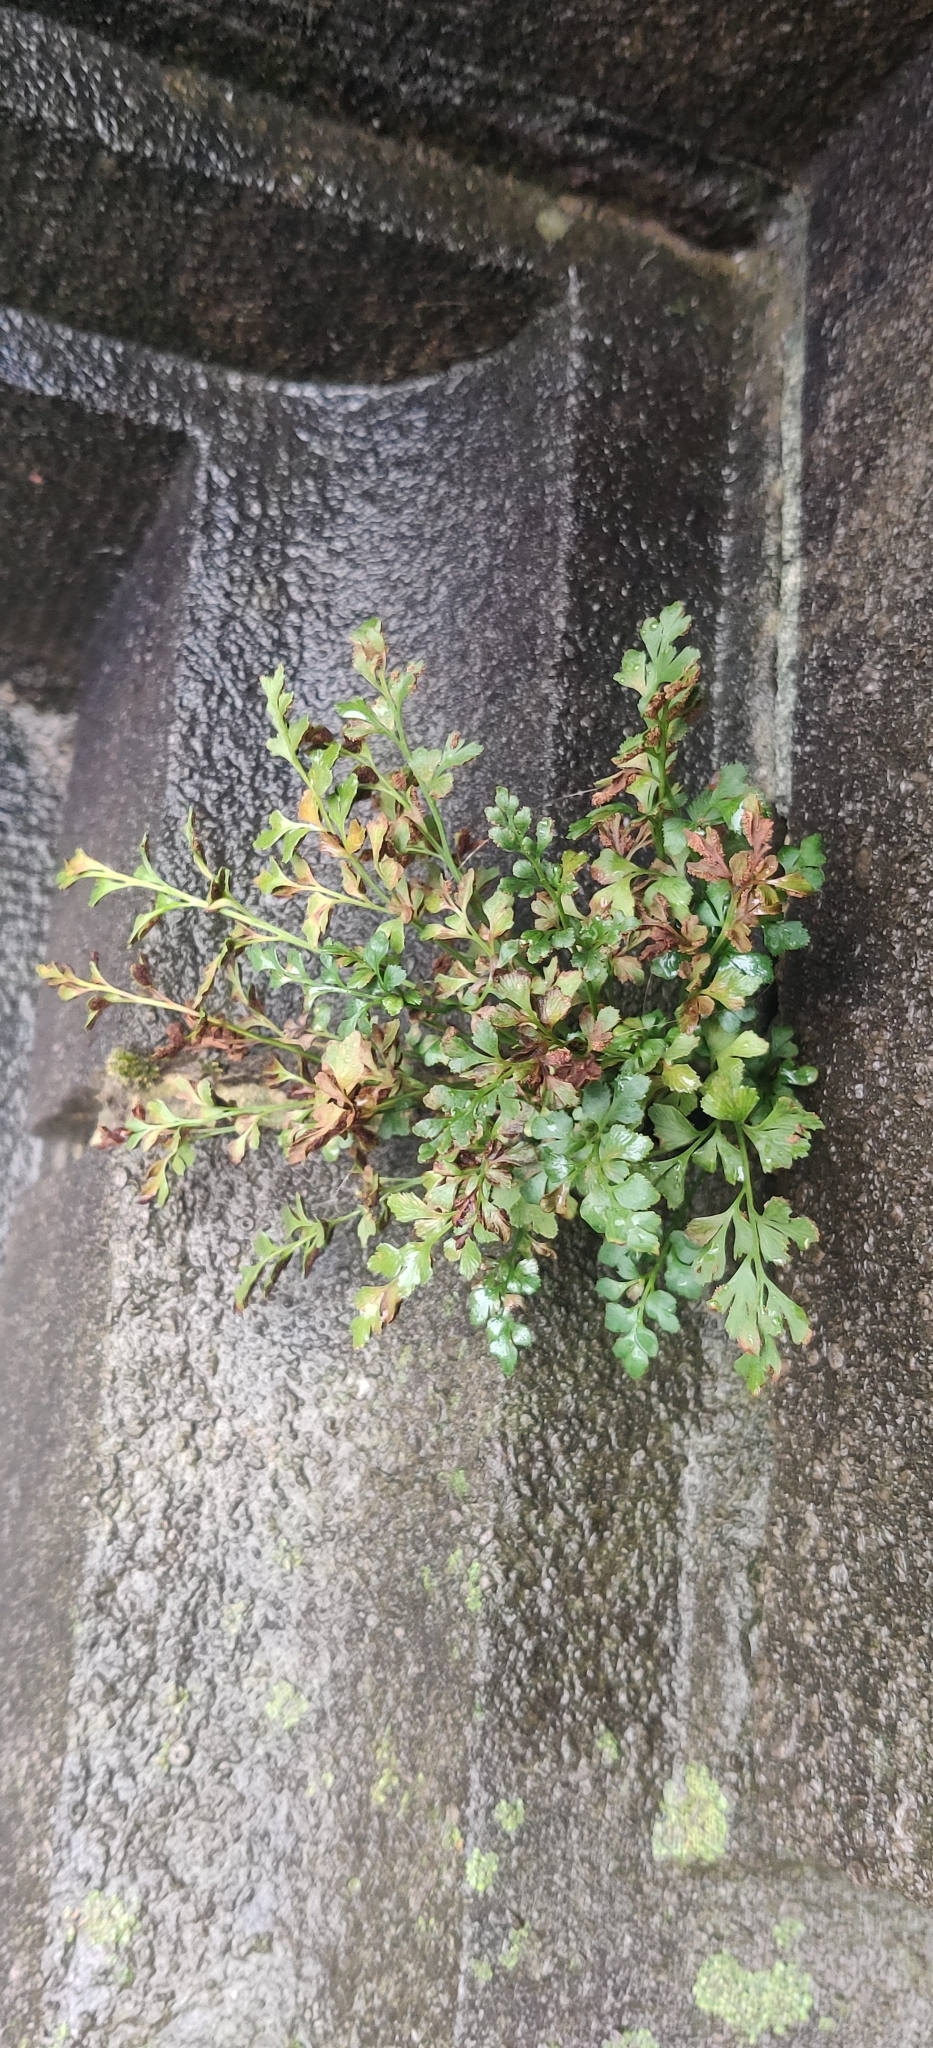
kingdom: Plantae
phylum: Tracheophyta
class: Polypodiopsida
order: Polypodiales
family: Aspleniaceae
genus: Asplenium
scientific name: Asplenium ruta-muraria
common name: Wall-rue
